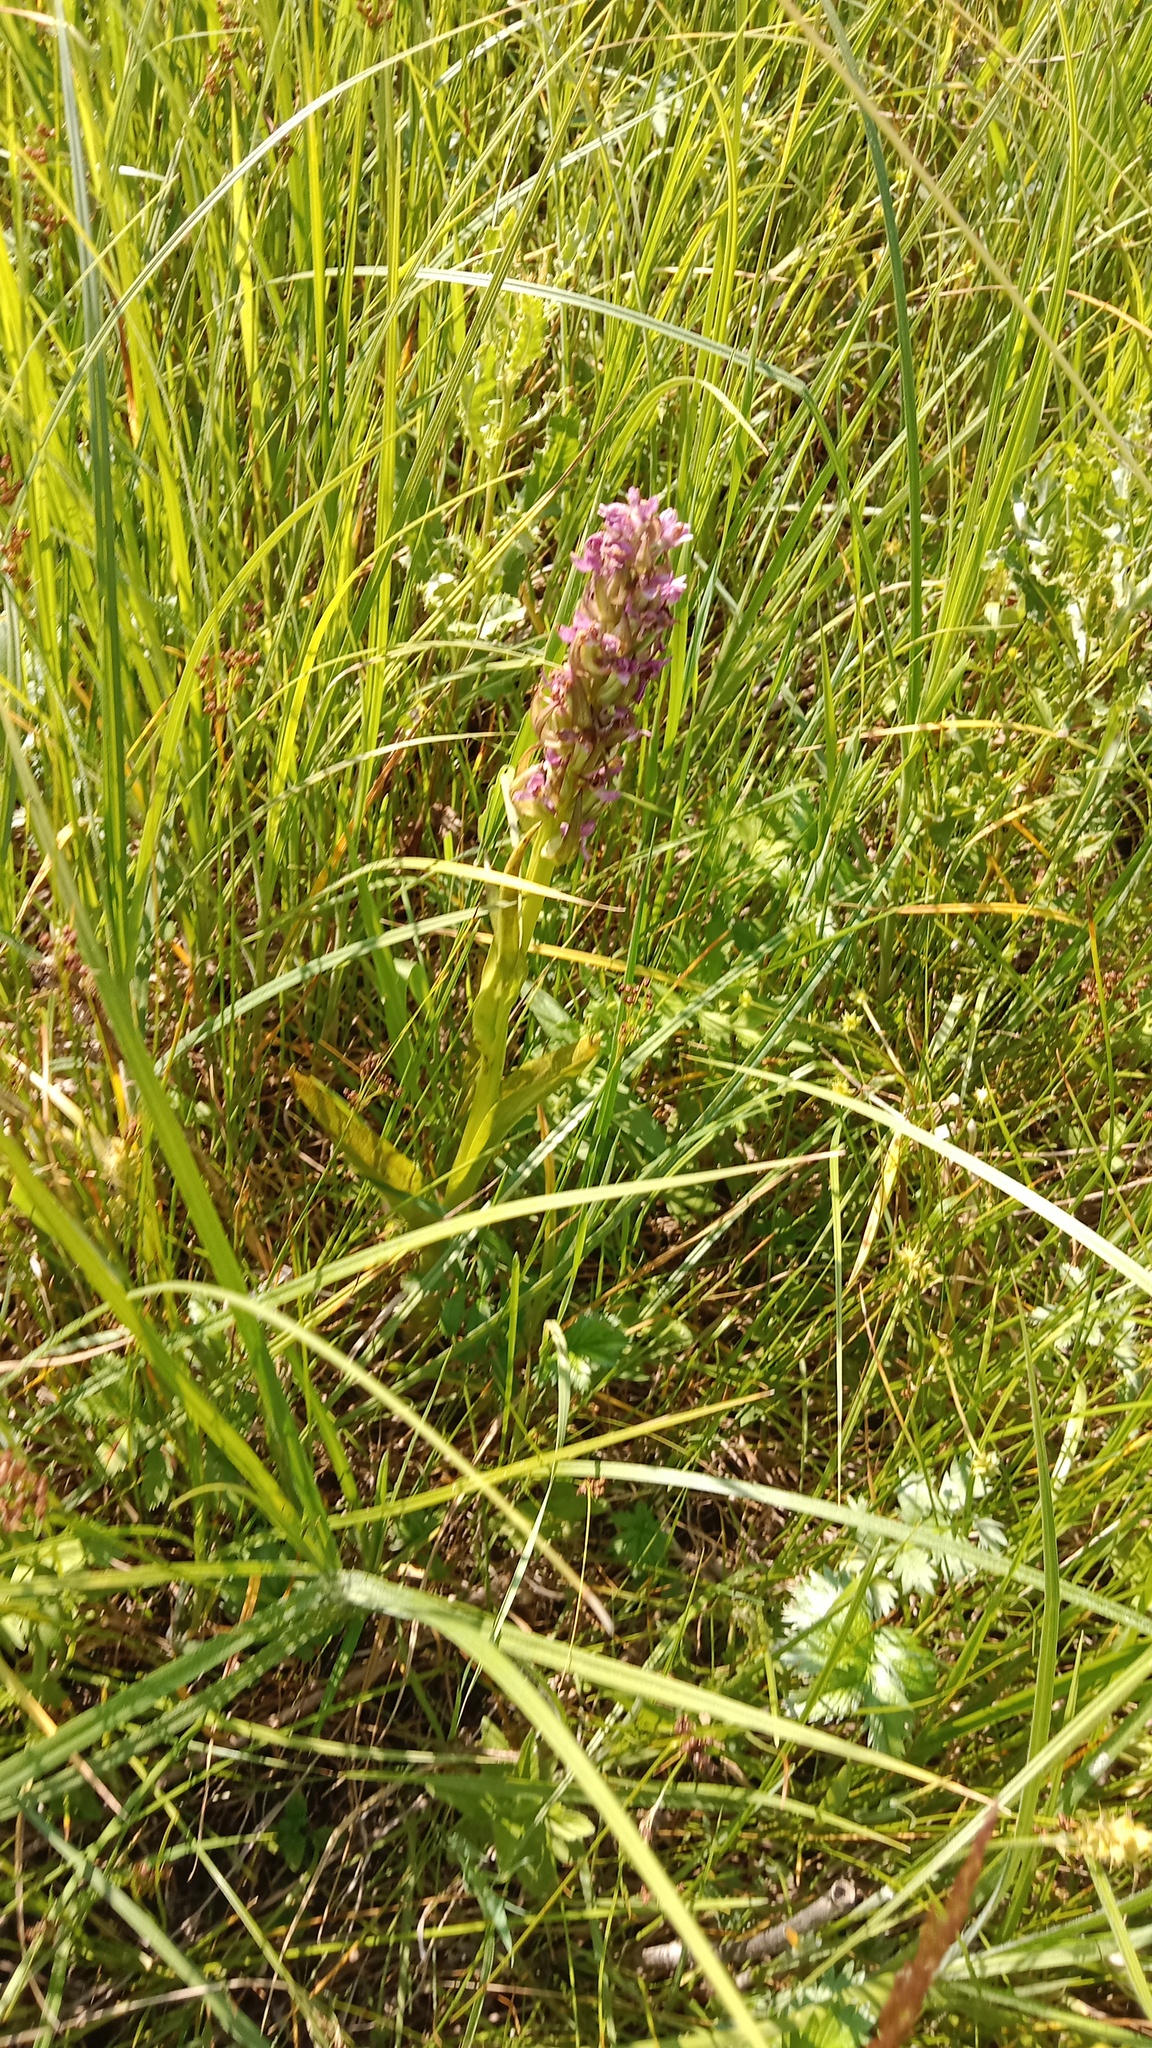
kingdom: Plantae
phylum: Tracheophyta
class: Liliopsida
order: Asparagales
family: Orchidaceae
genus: Dactylorhiza
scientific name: Dactylorhiza incarnata
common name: Early marsh-orchid
